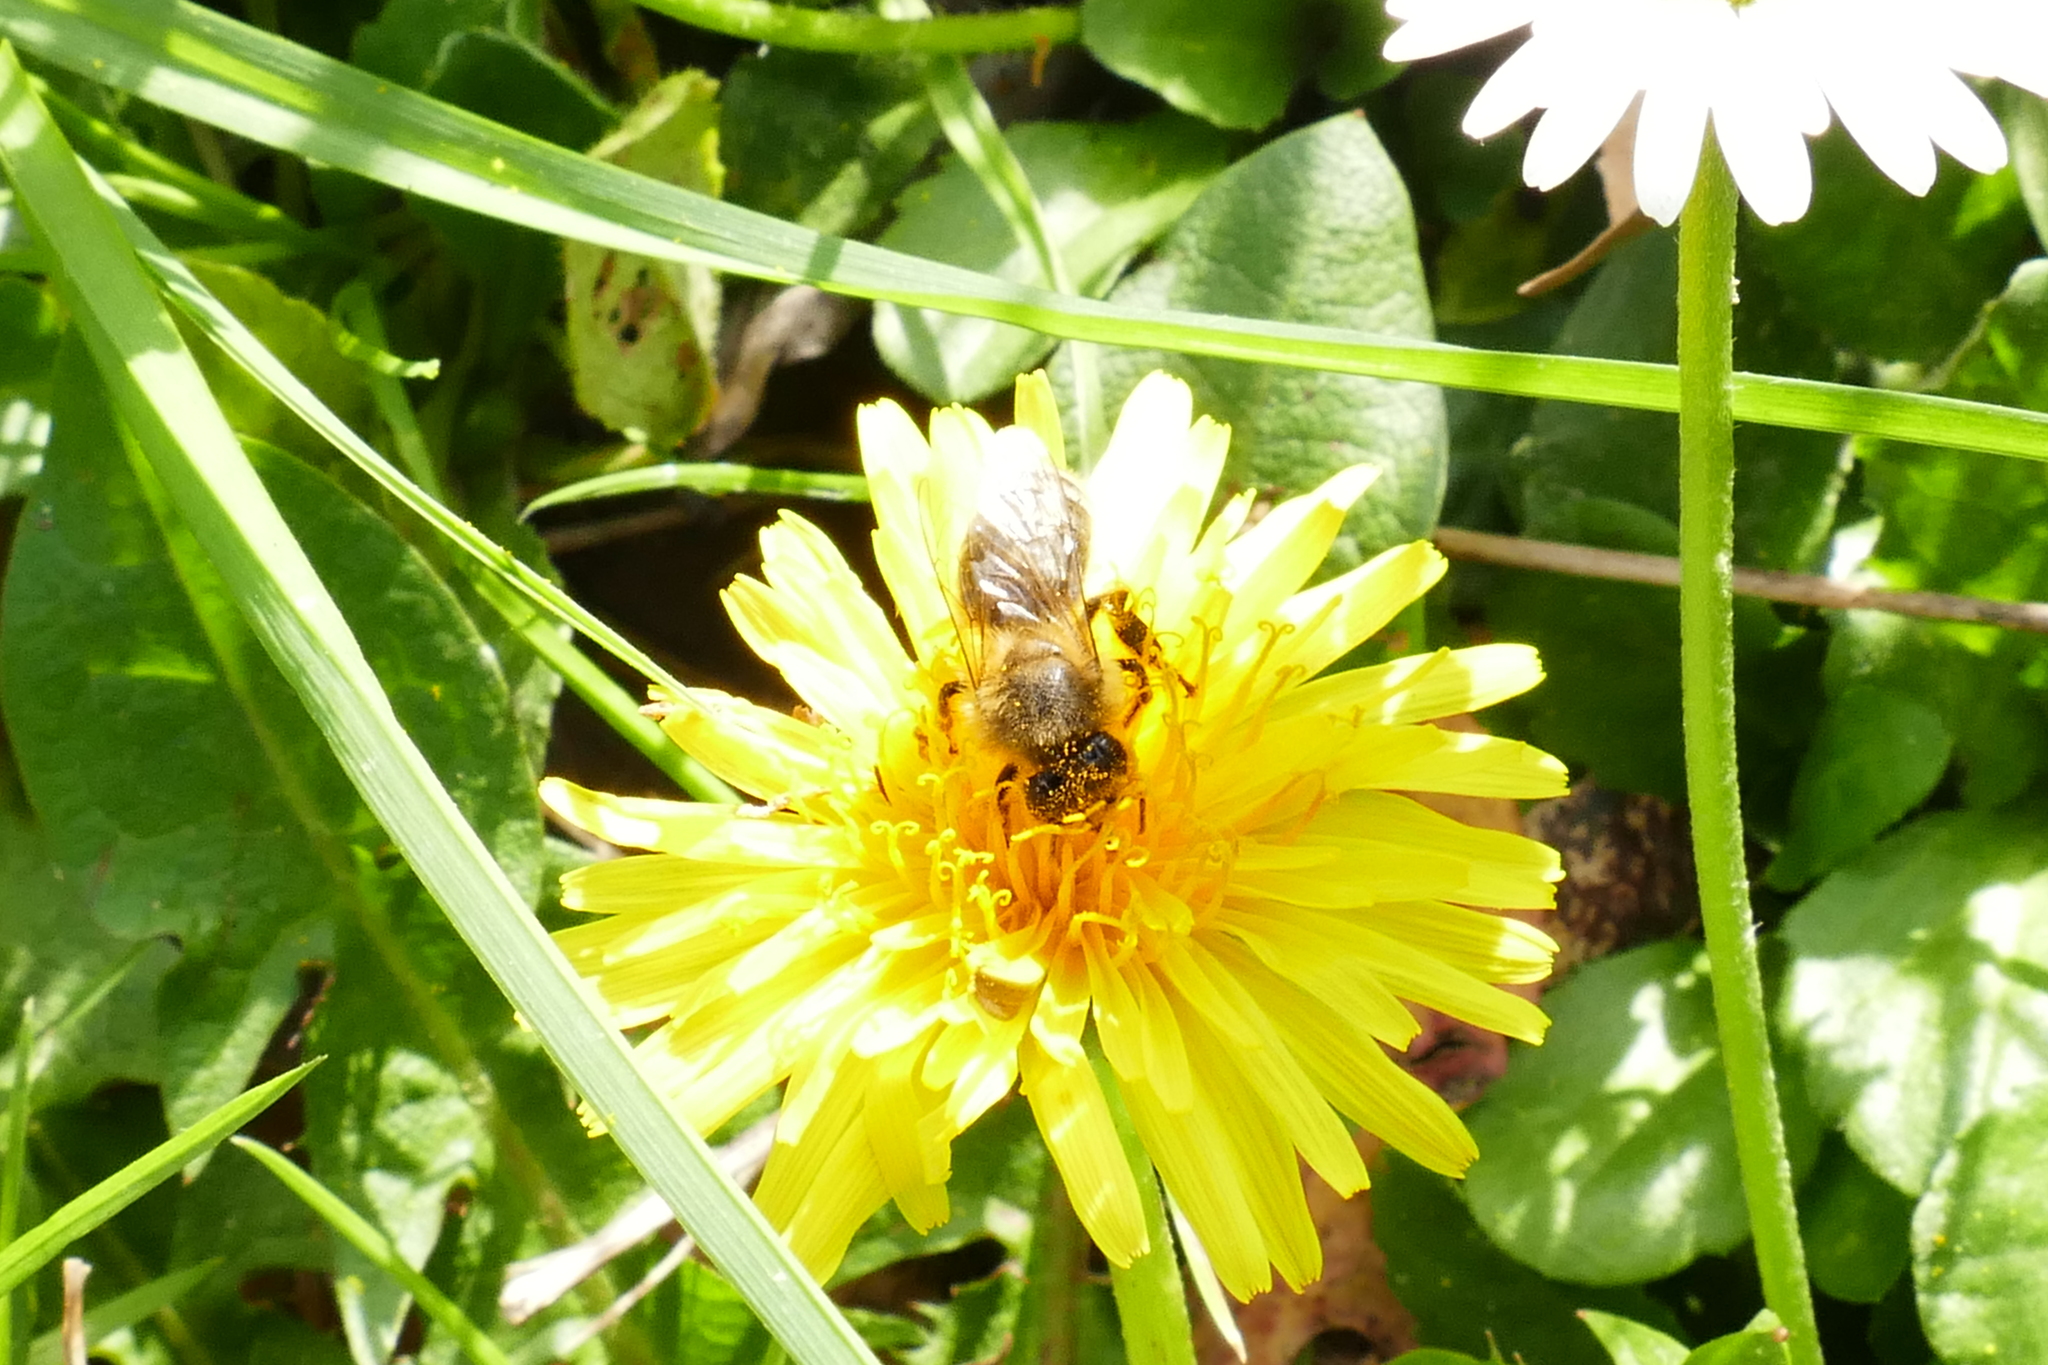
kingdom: Animalia
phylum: Arthropoda
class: Insecta
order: Hymenoptera
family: Apidae
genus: Apis
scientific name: Apis mellifera
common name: Honey bee
